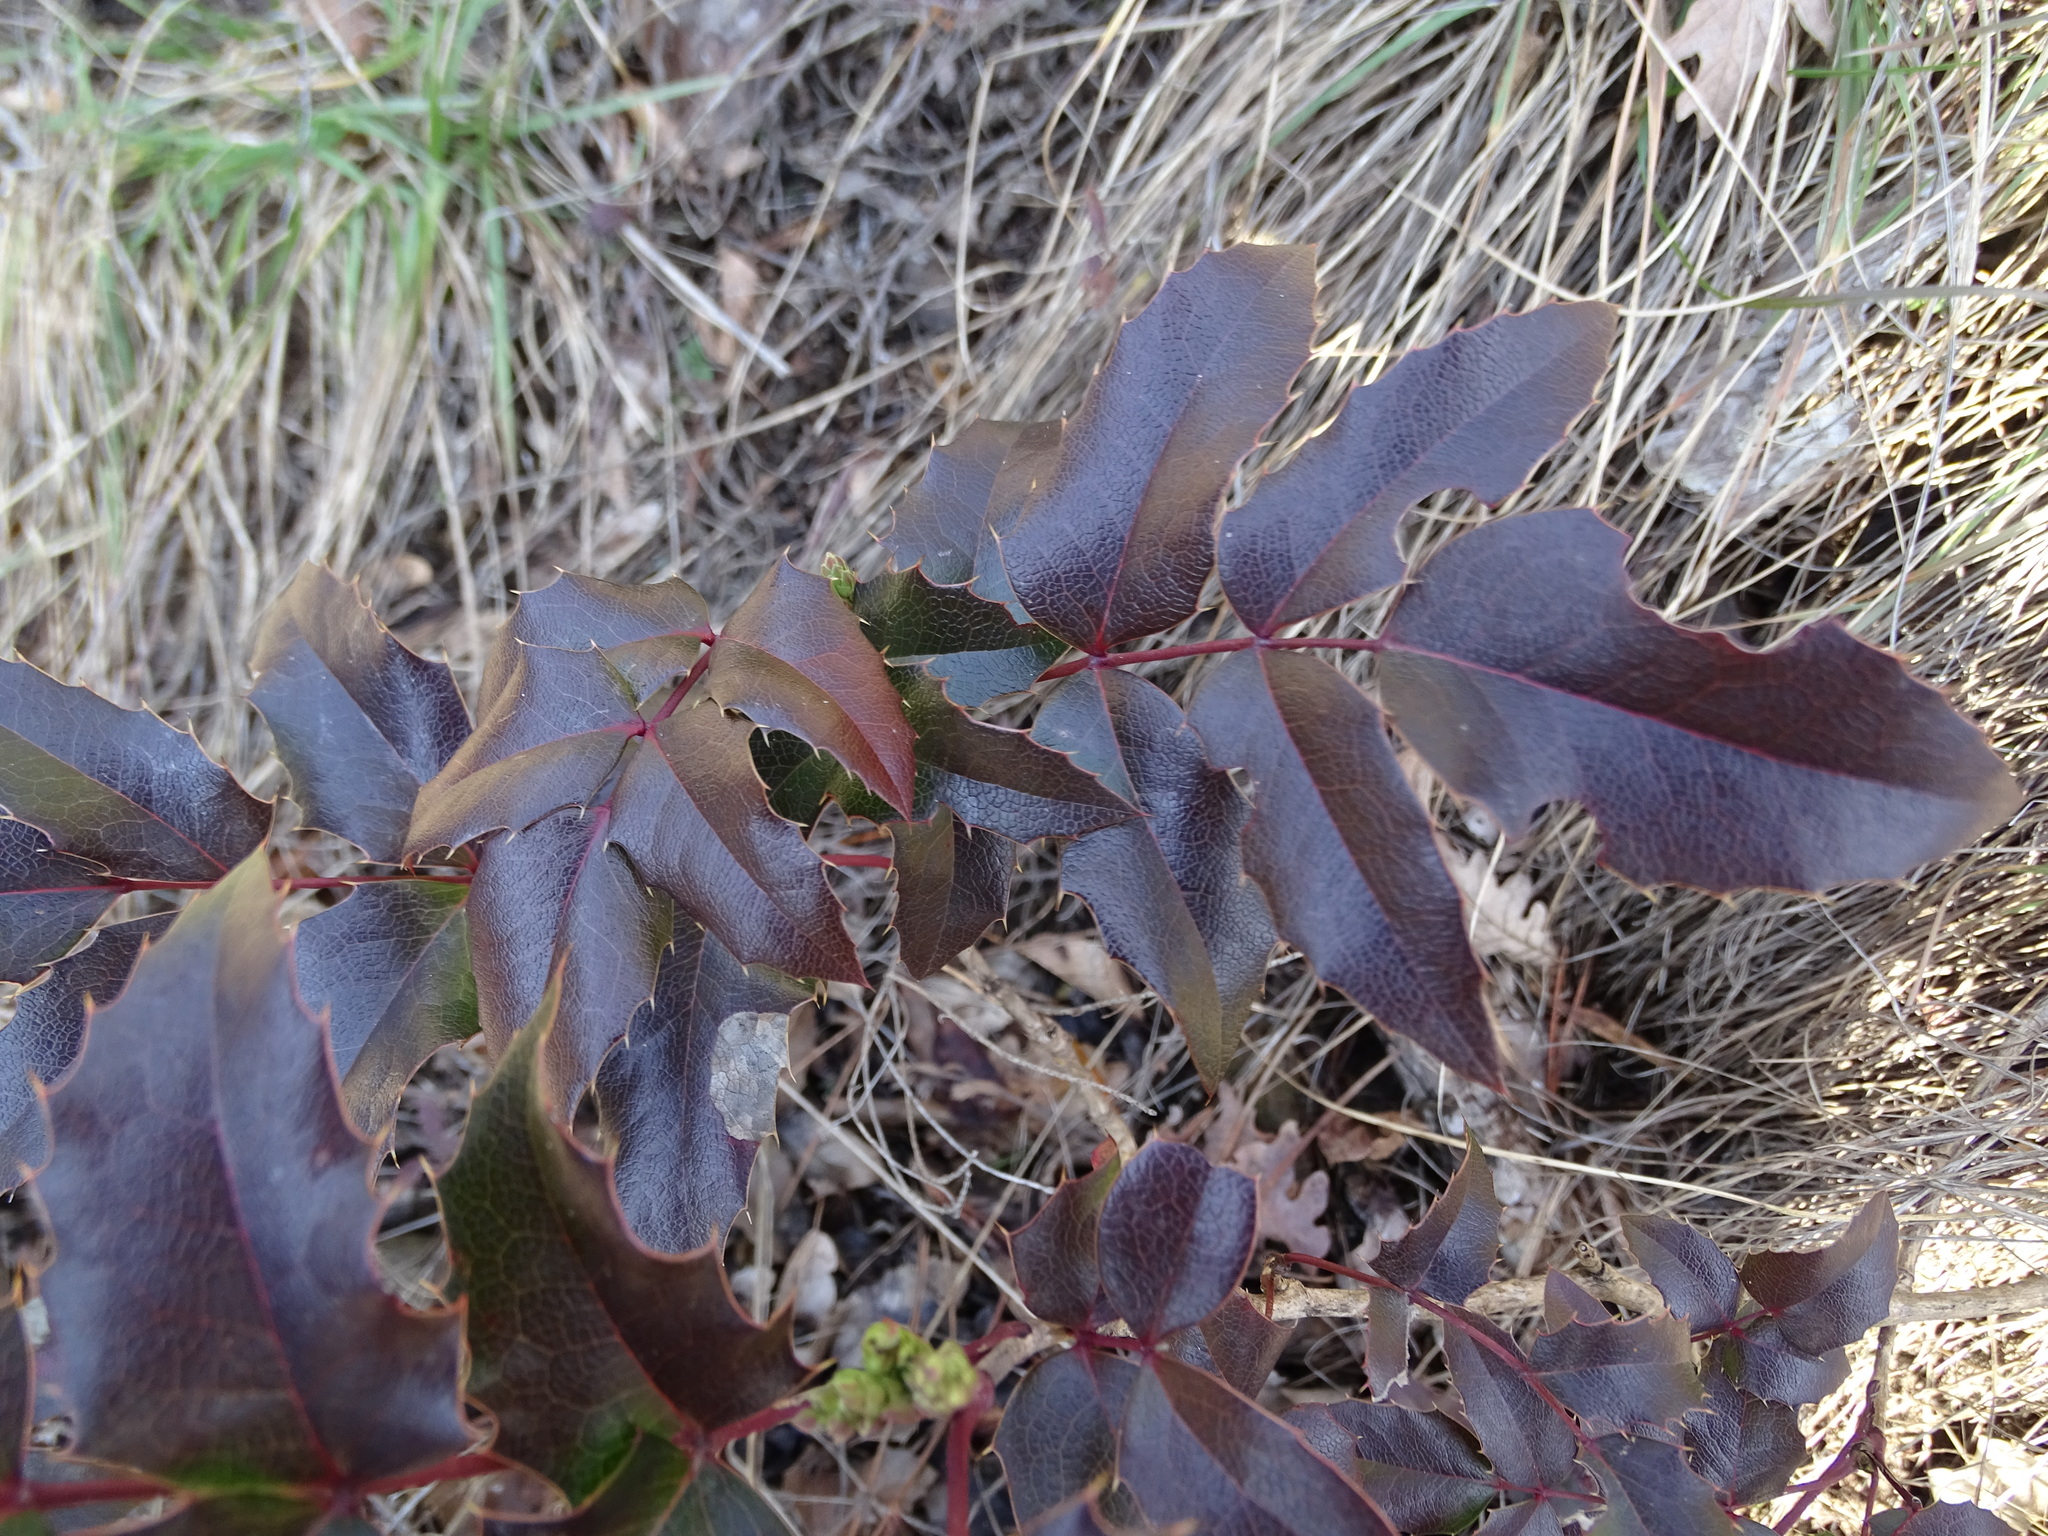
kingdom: Plantae
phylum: Tracheophyta
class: Magnoliopsida
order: Ranunculales
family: Berberidaceae
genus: Mahonia
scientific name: Mahonia aquifolium
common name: Oregon-grape
